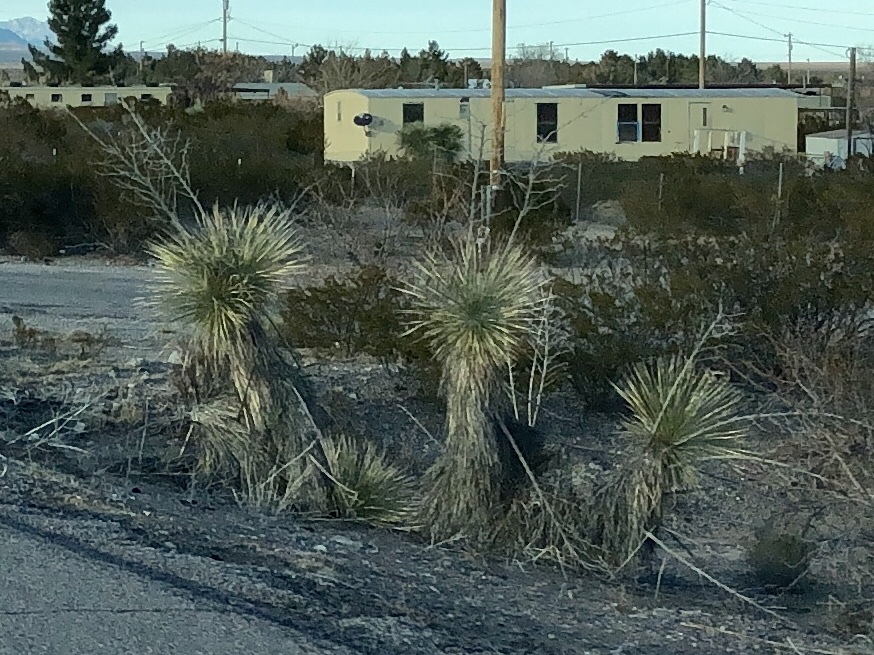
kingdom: Plantae
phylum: Tracheophyta
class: Liliopsida
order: Asparagales
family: Asparagaceae
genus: Yucca
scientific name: Yucca elata
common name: Palmella
